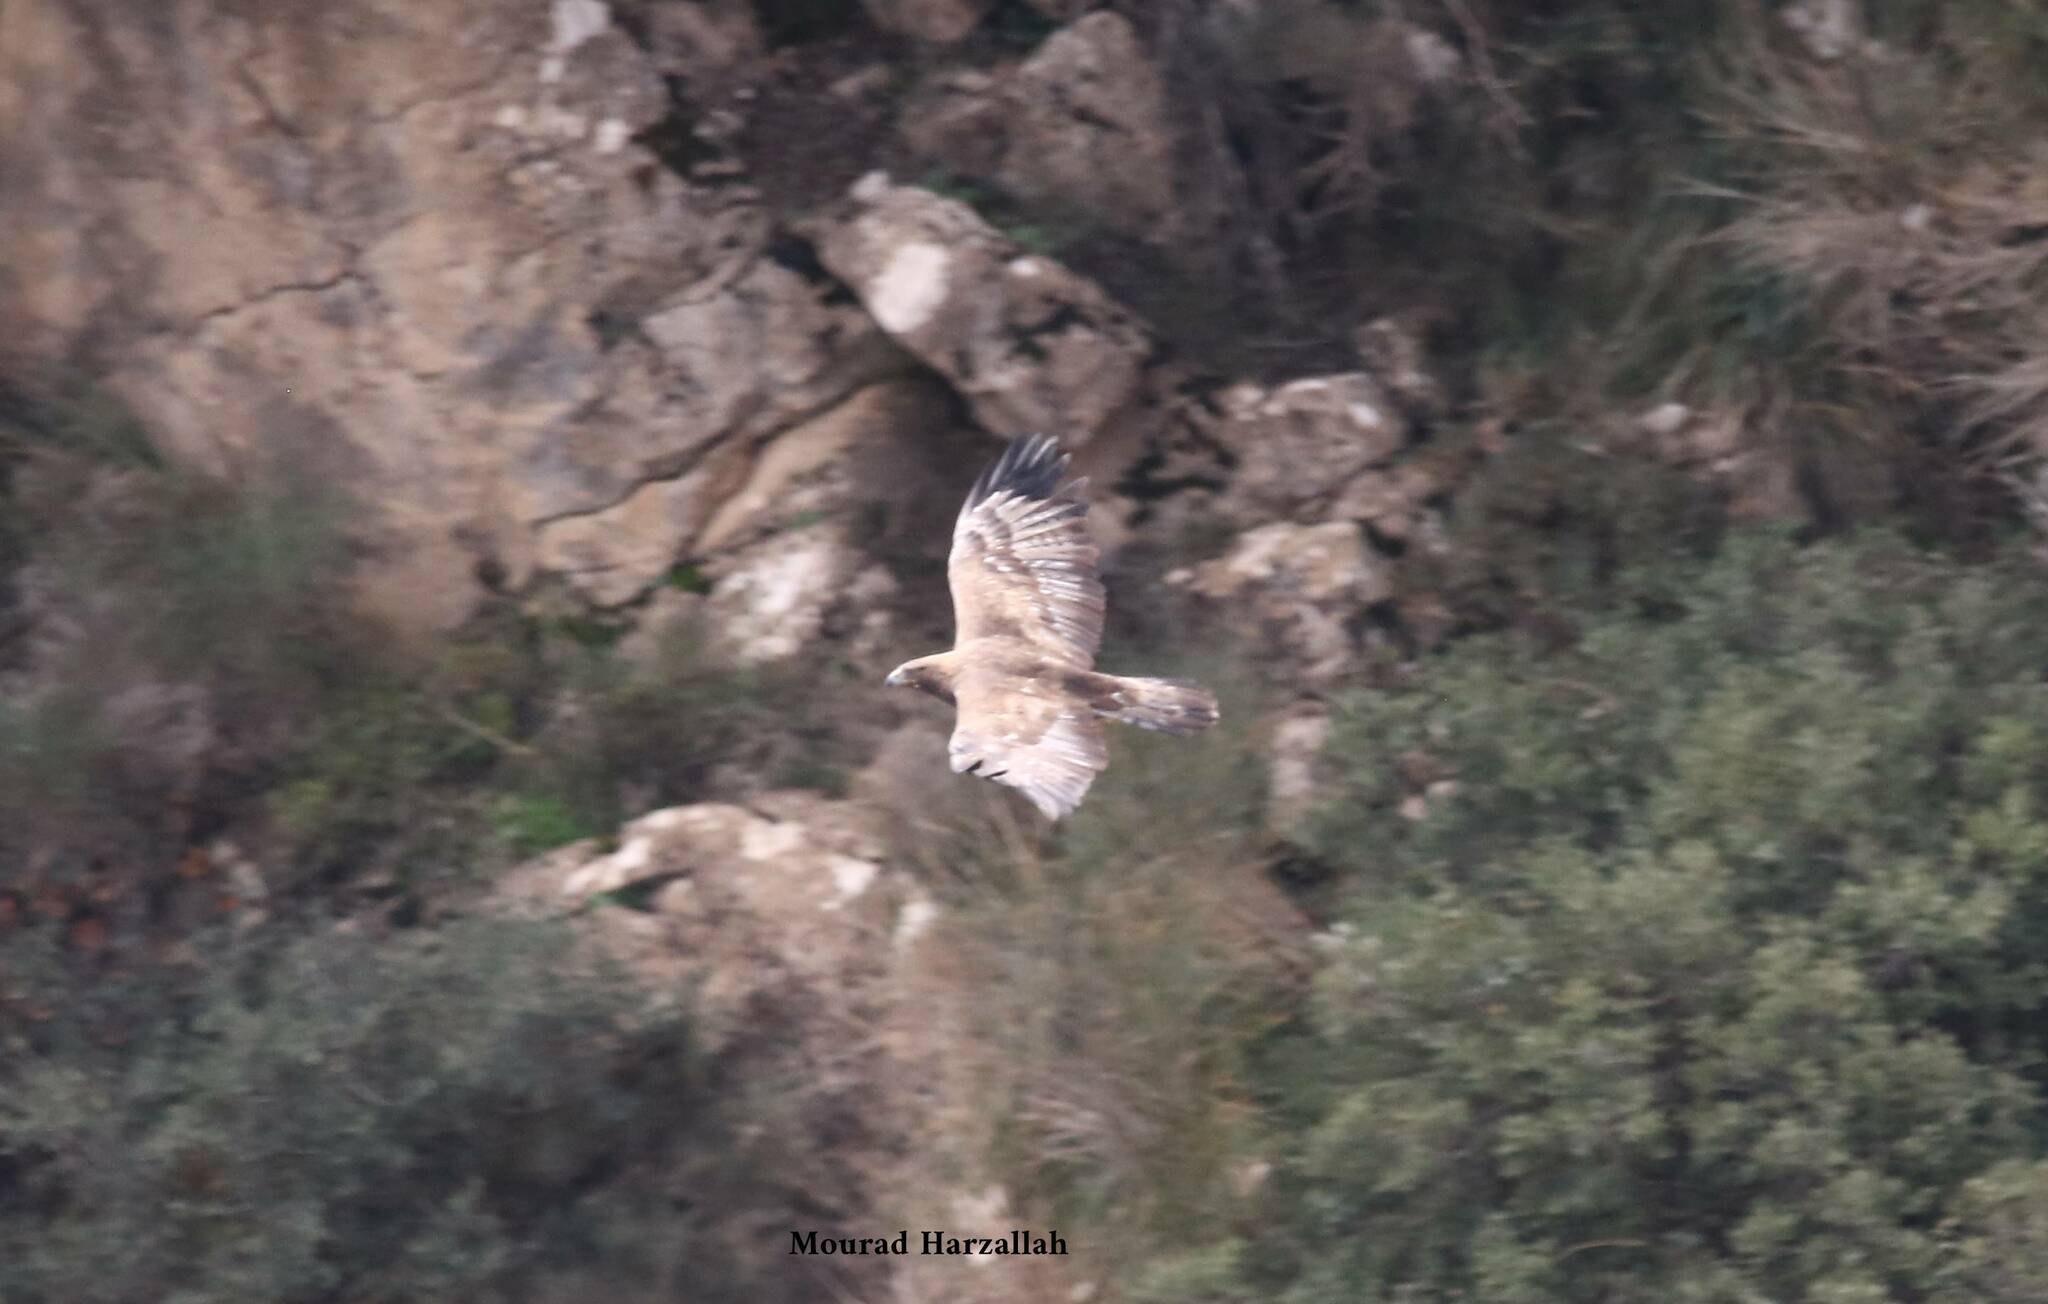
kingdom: Animalia
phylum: Chordata
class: Aves
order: Accipitriformes
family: Accipitridae
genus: Aquila
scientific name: Aquila chrysaetos
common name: Golden eagle
